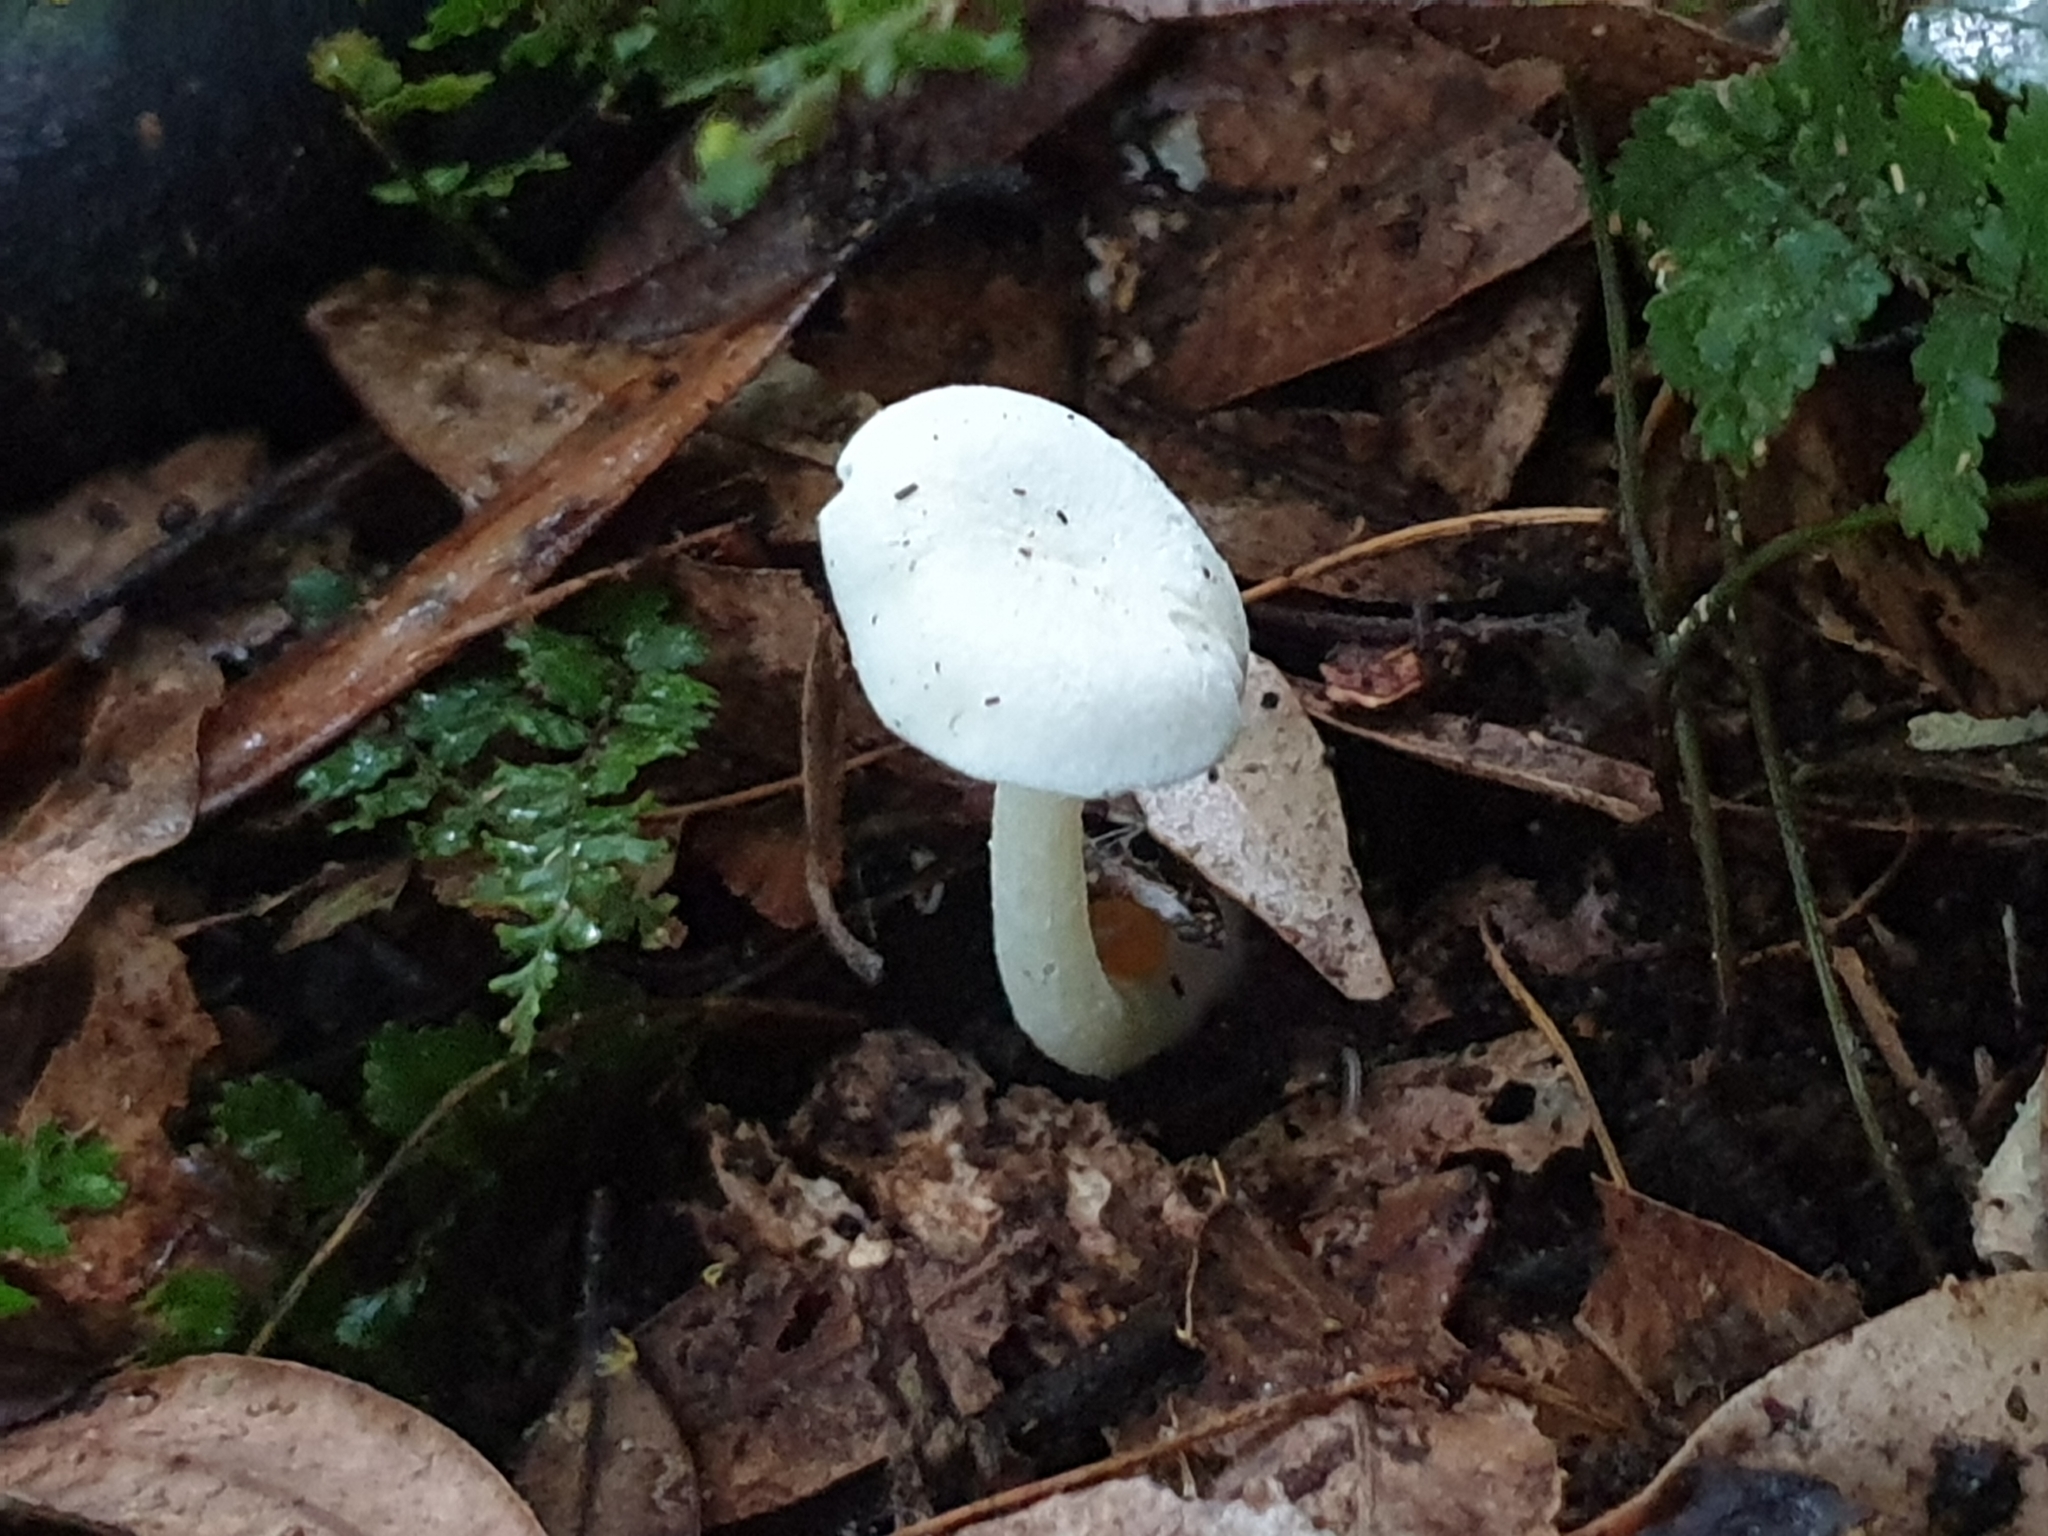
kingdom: Fungi
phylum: Basidiomycota
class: Agaricomycetes
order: Agaricales
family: Hygrophoraceae
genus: Hygrophorus
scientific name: Hygrophorus involutus
